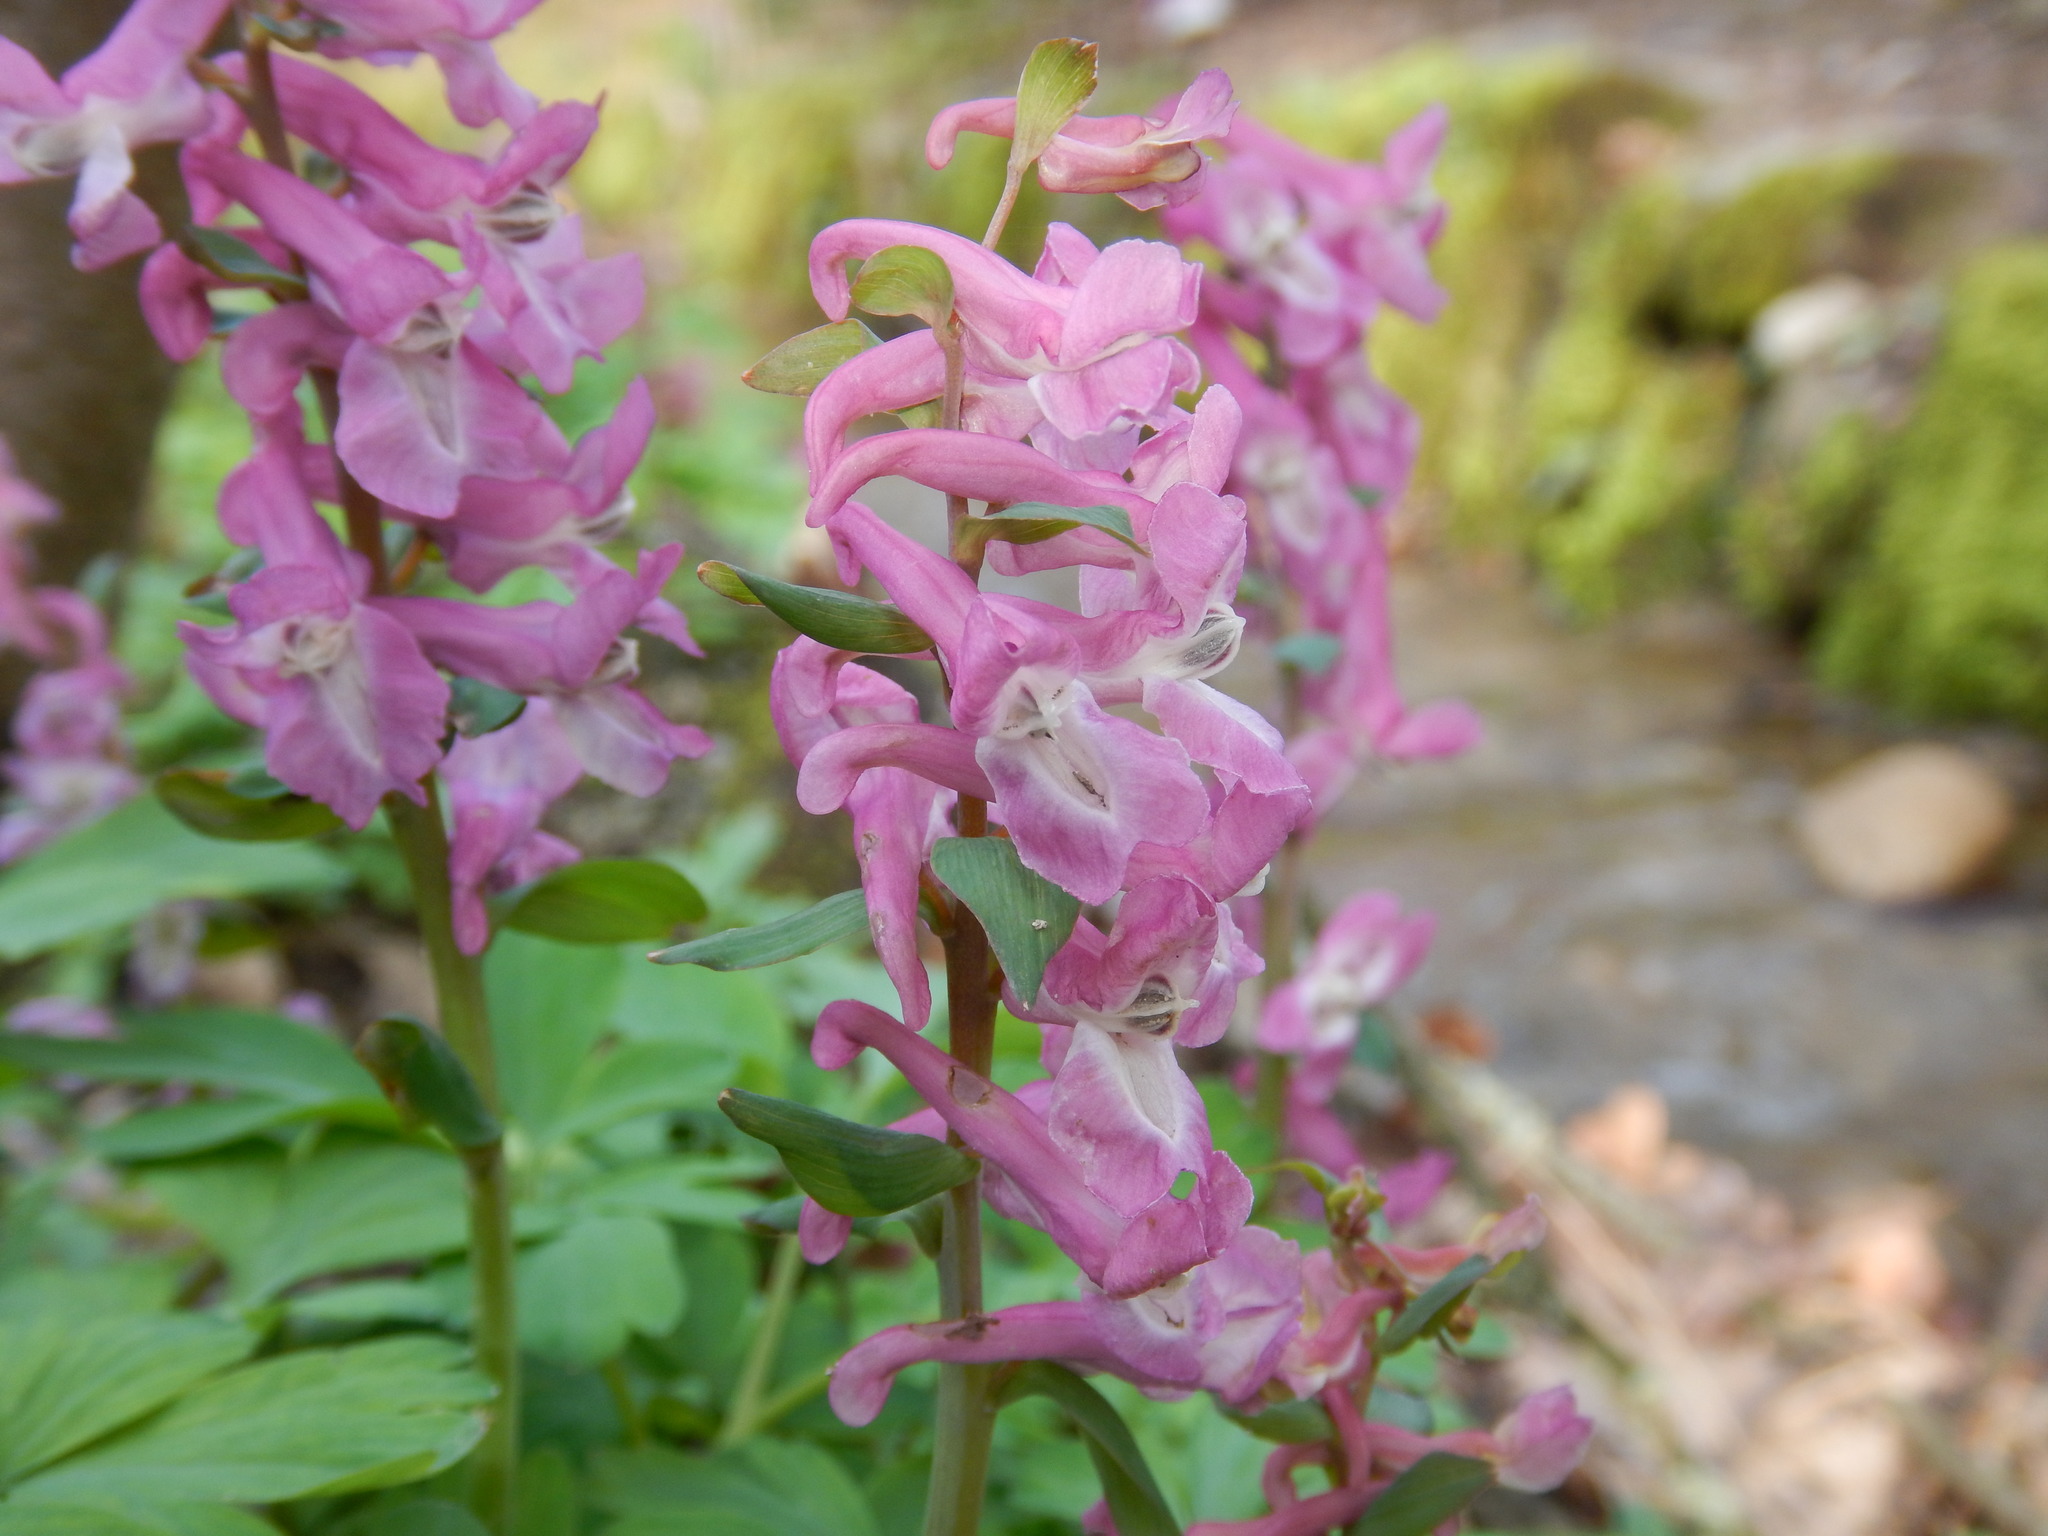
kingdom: Plantae
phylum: Tracheophyta
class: Magnoliopsida
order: Ranunculales
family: Papaveraceae
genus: Corydalis
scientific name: Corydalis cava
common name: Hollowroot
